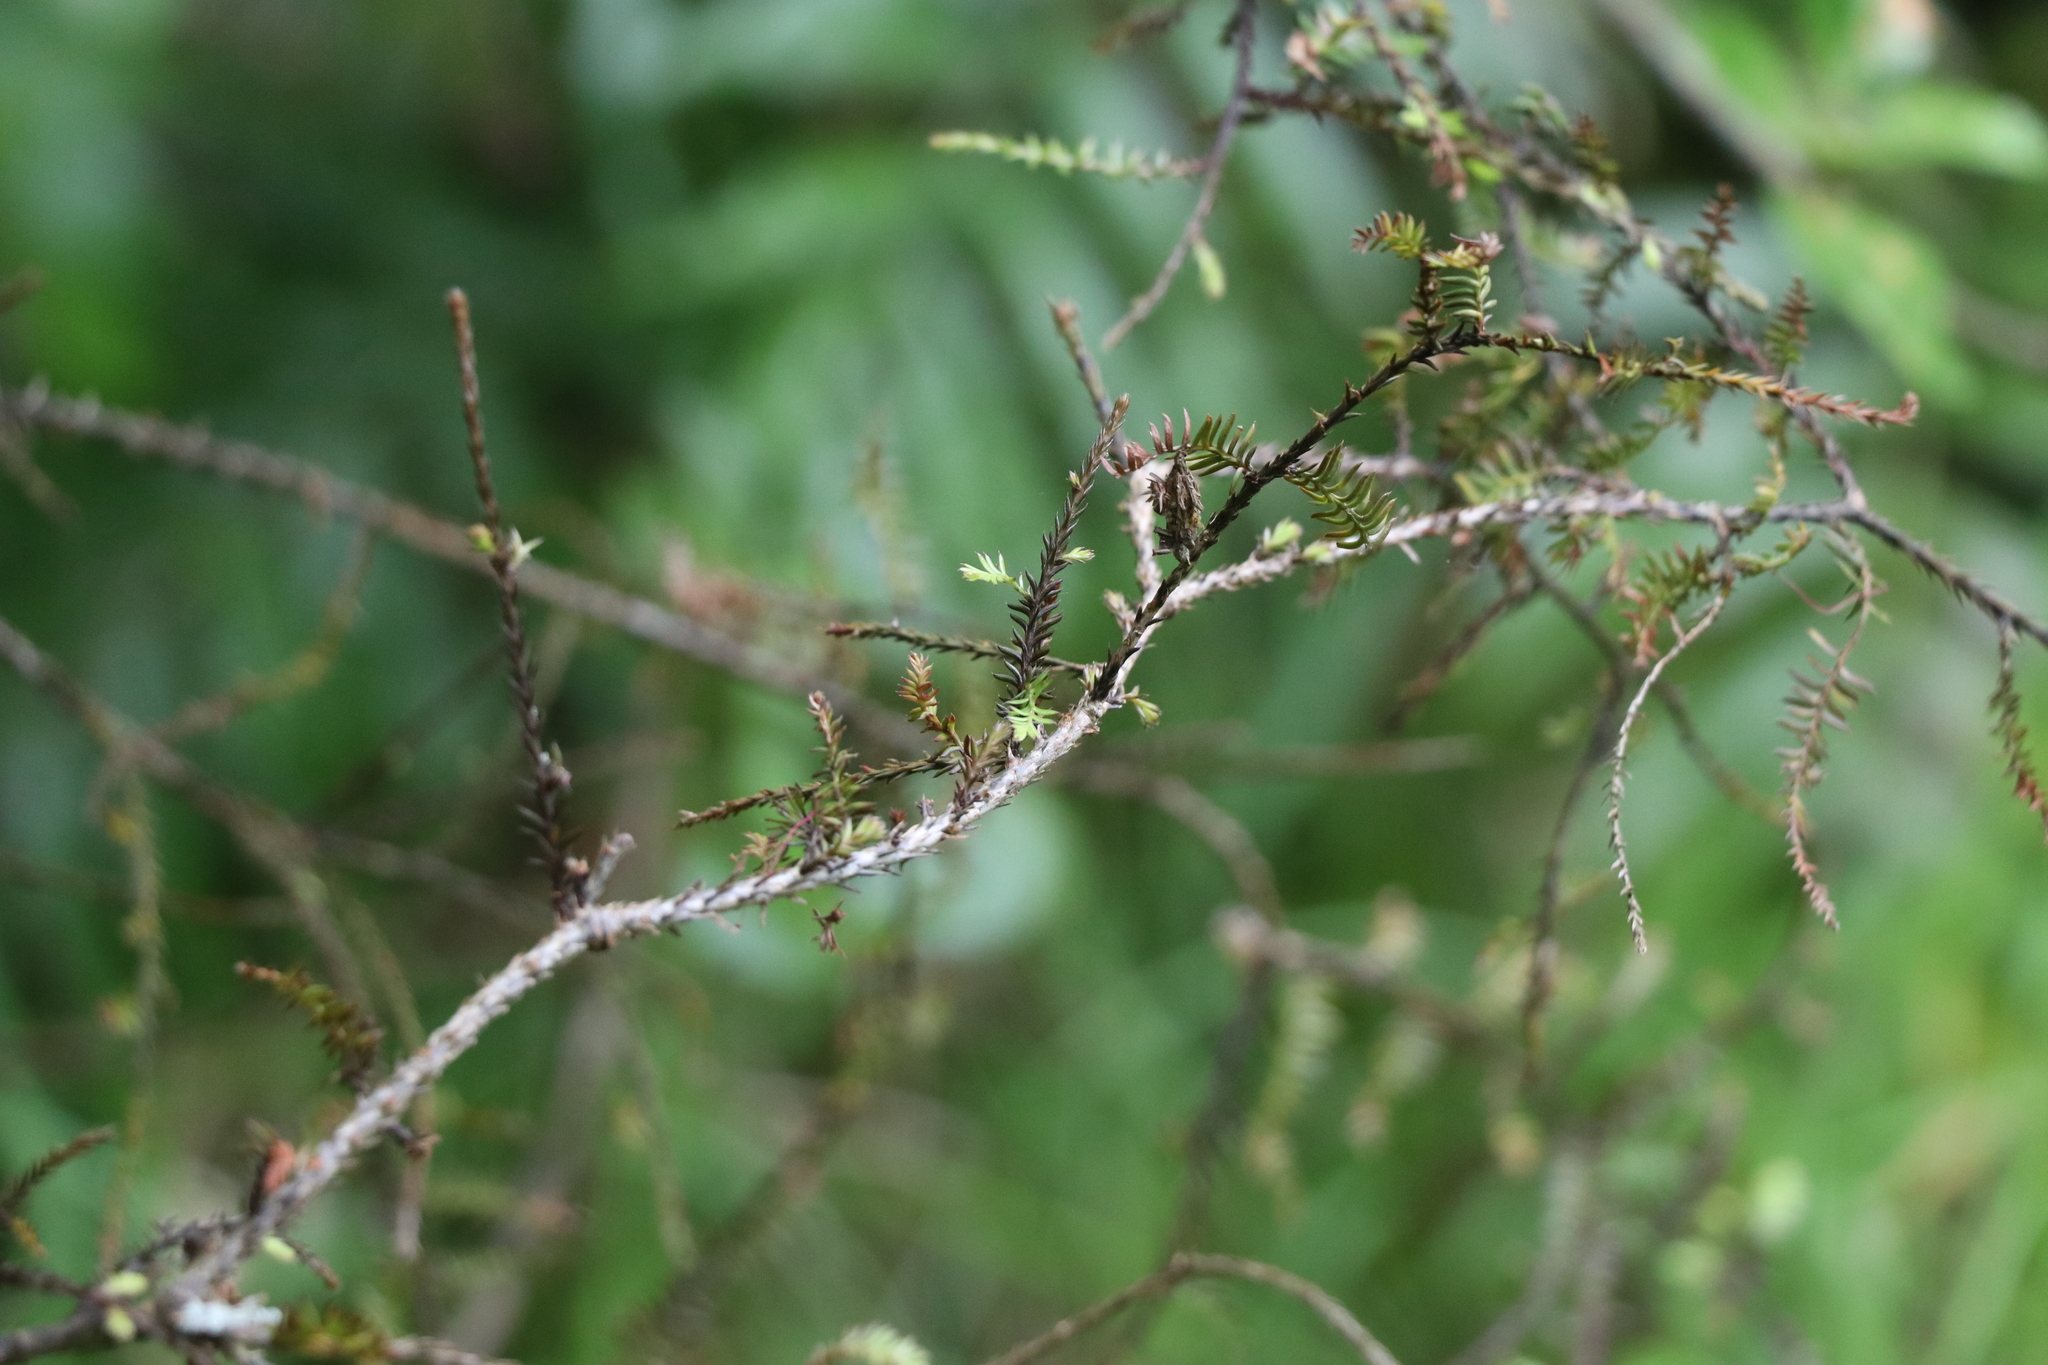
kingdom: Plantae
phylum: Tracheophyta
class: Pinopsida
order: Pinales
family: Podocarpaceae
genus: Dacrycarpus
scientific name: Dacrycarpus dacrydioides
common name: White pine
